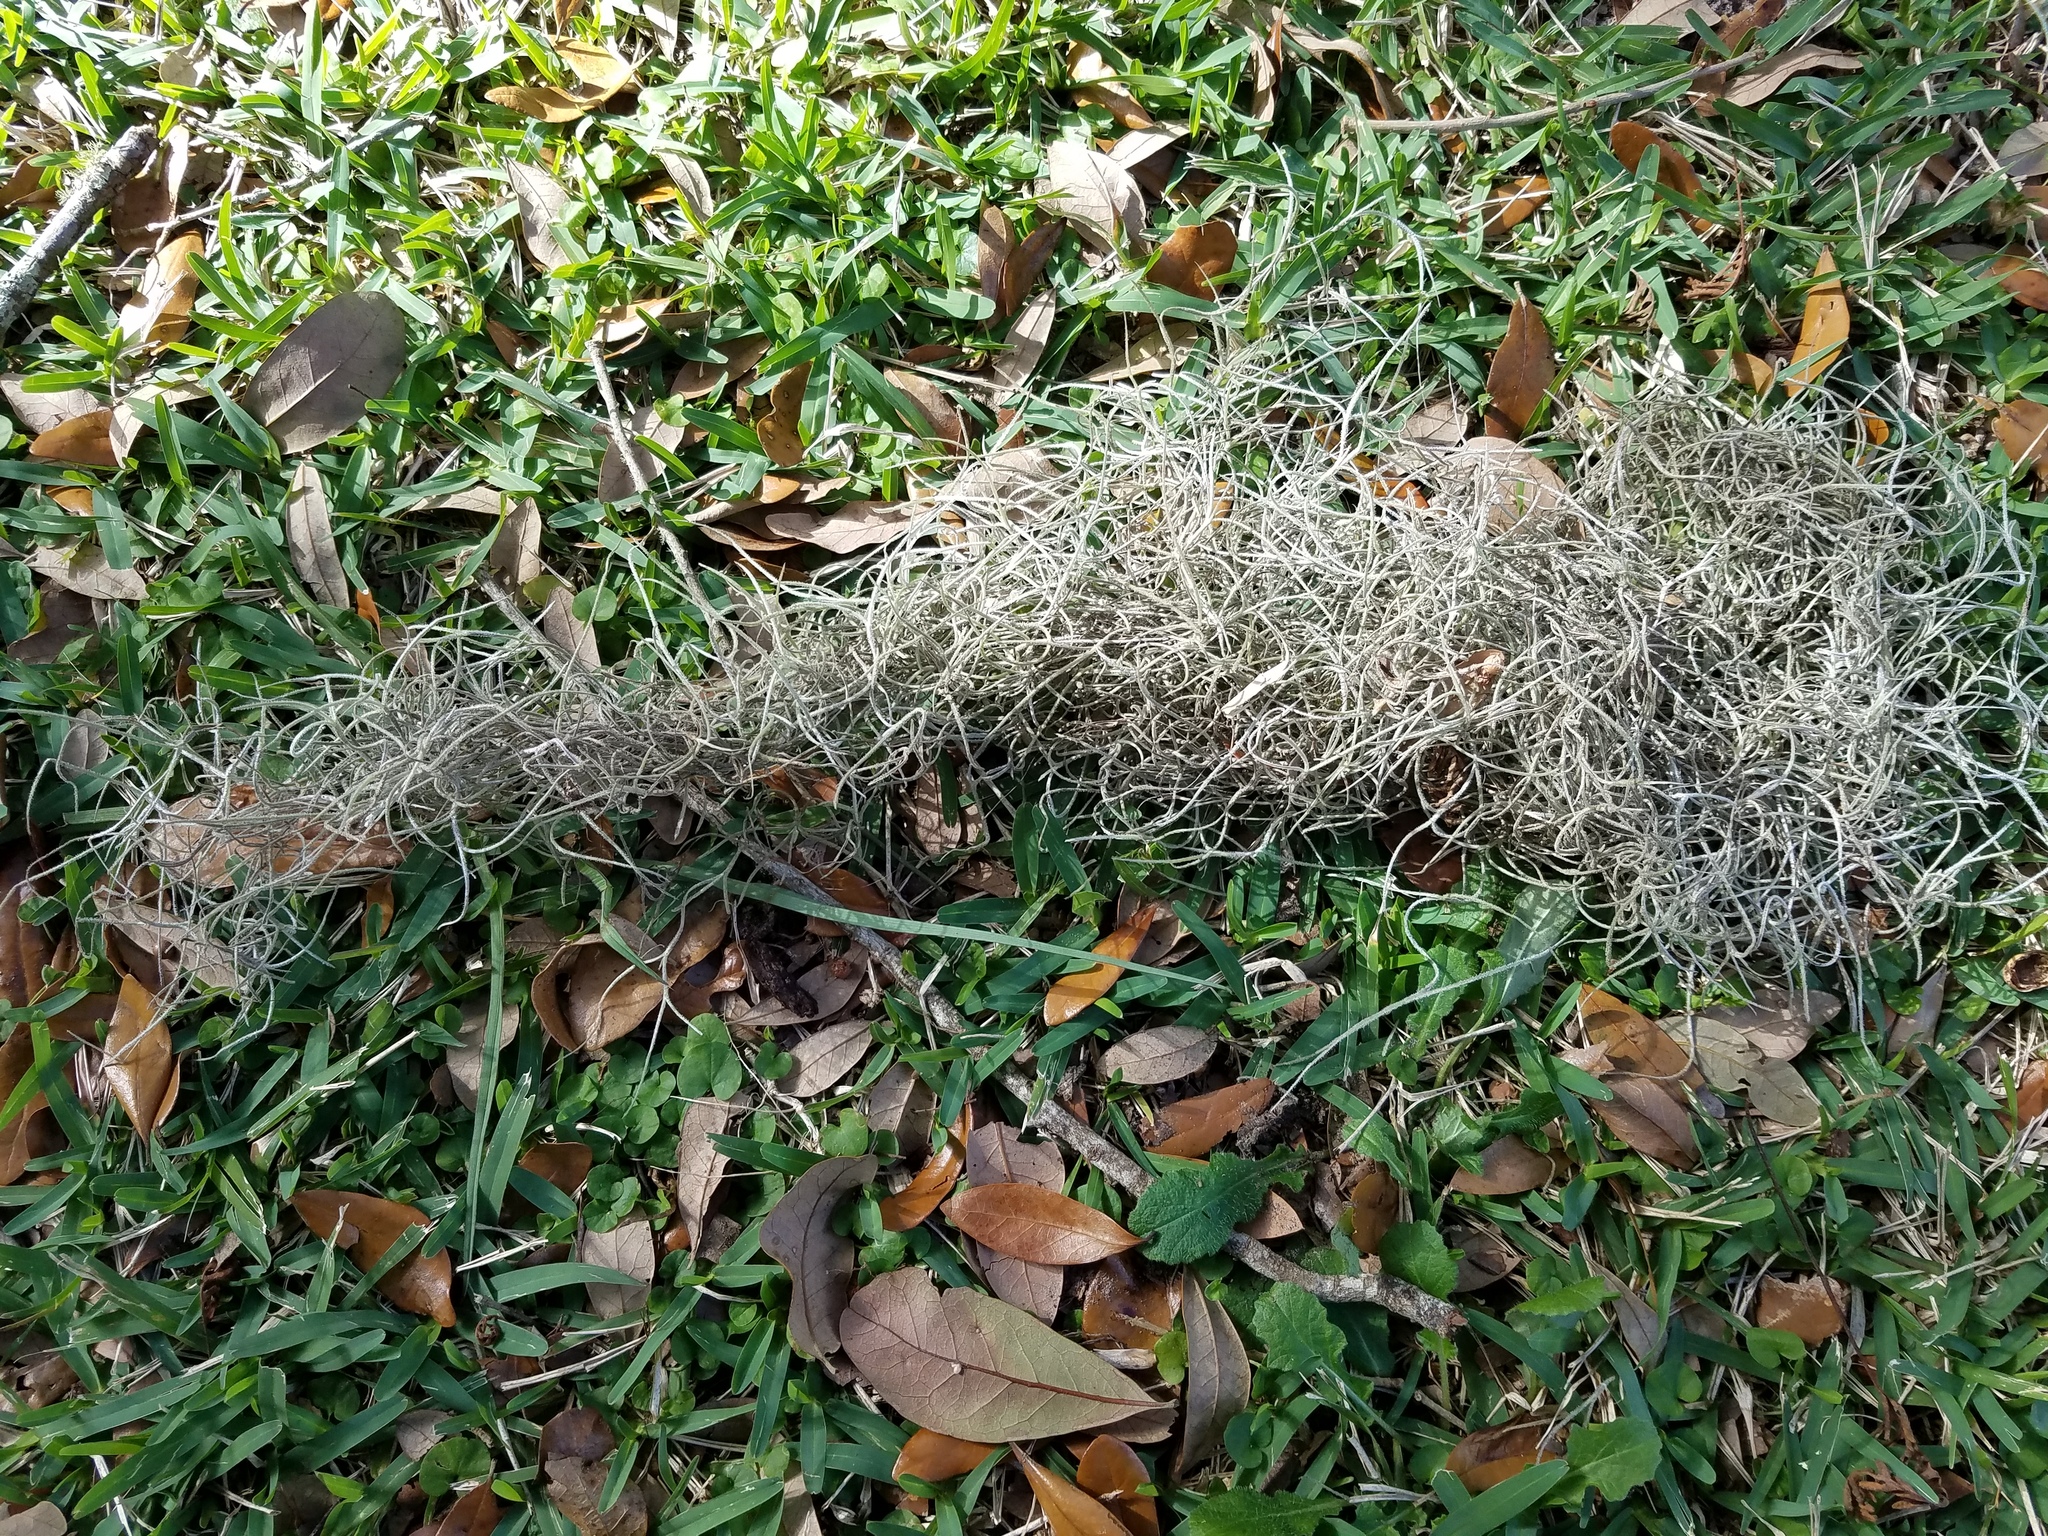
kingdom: Plantae
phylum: Tracheophyta
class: Liliopsida
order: Poales
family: Bromeliaceae
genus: Tillandsia
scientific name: Tillandsia usneoides
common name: Spanish moss
